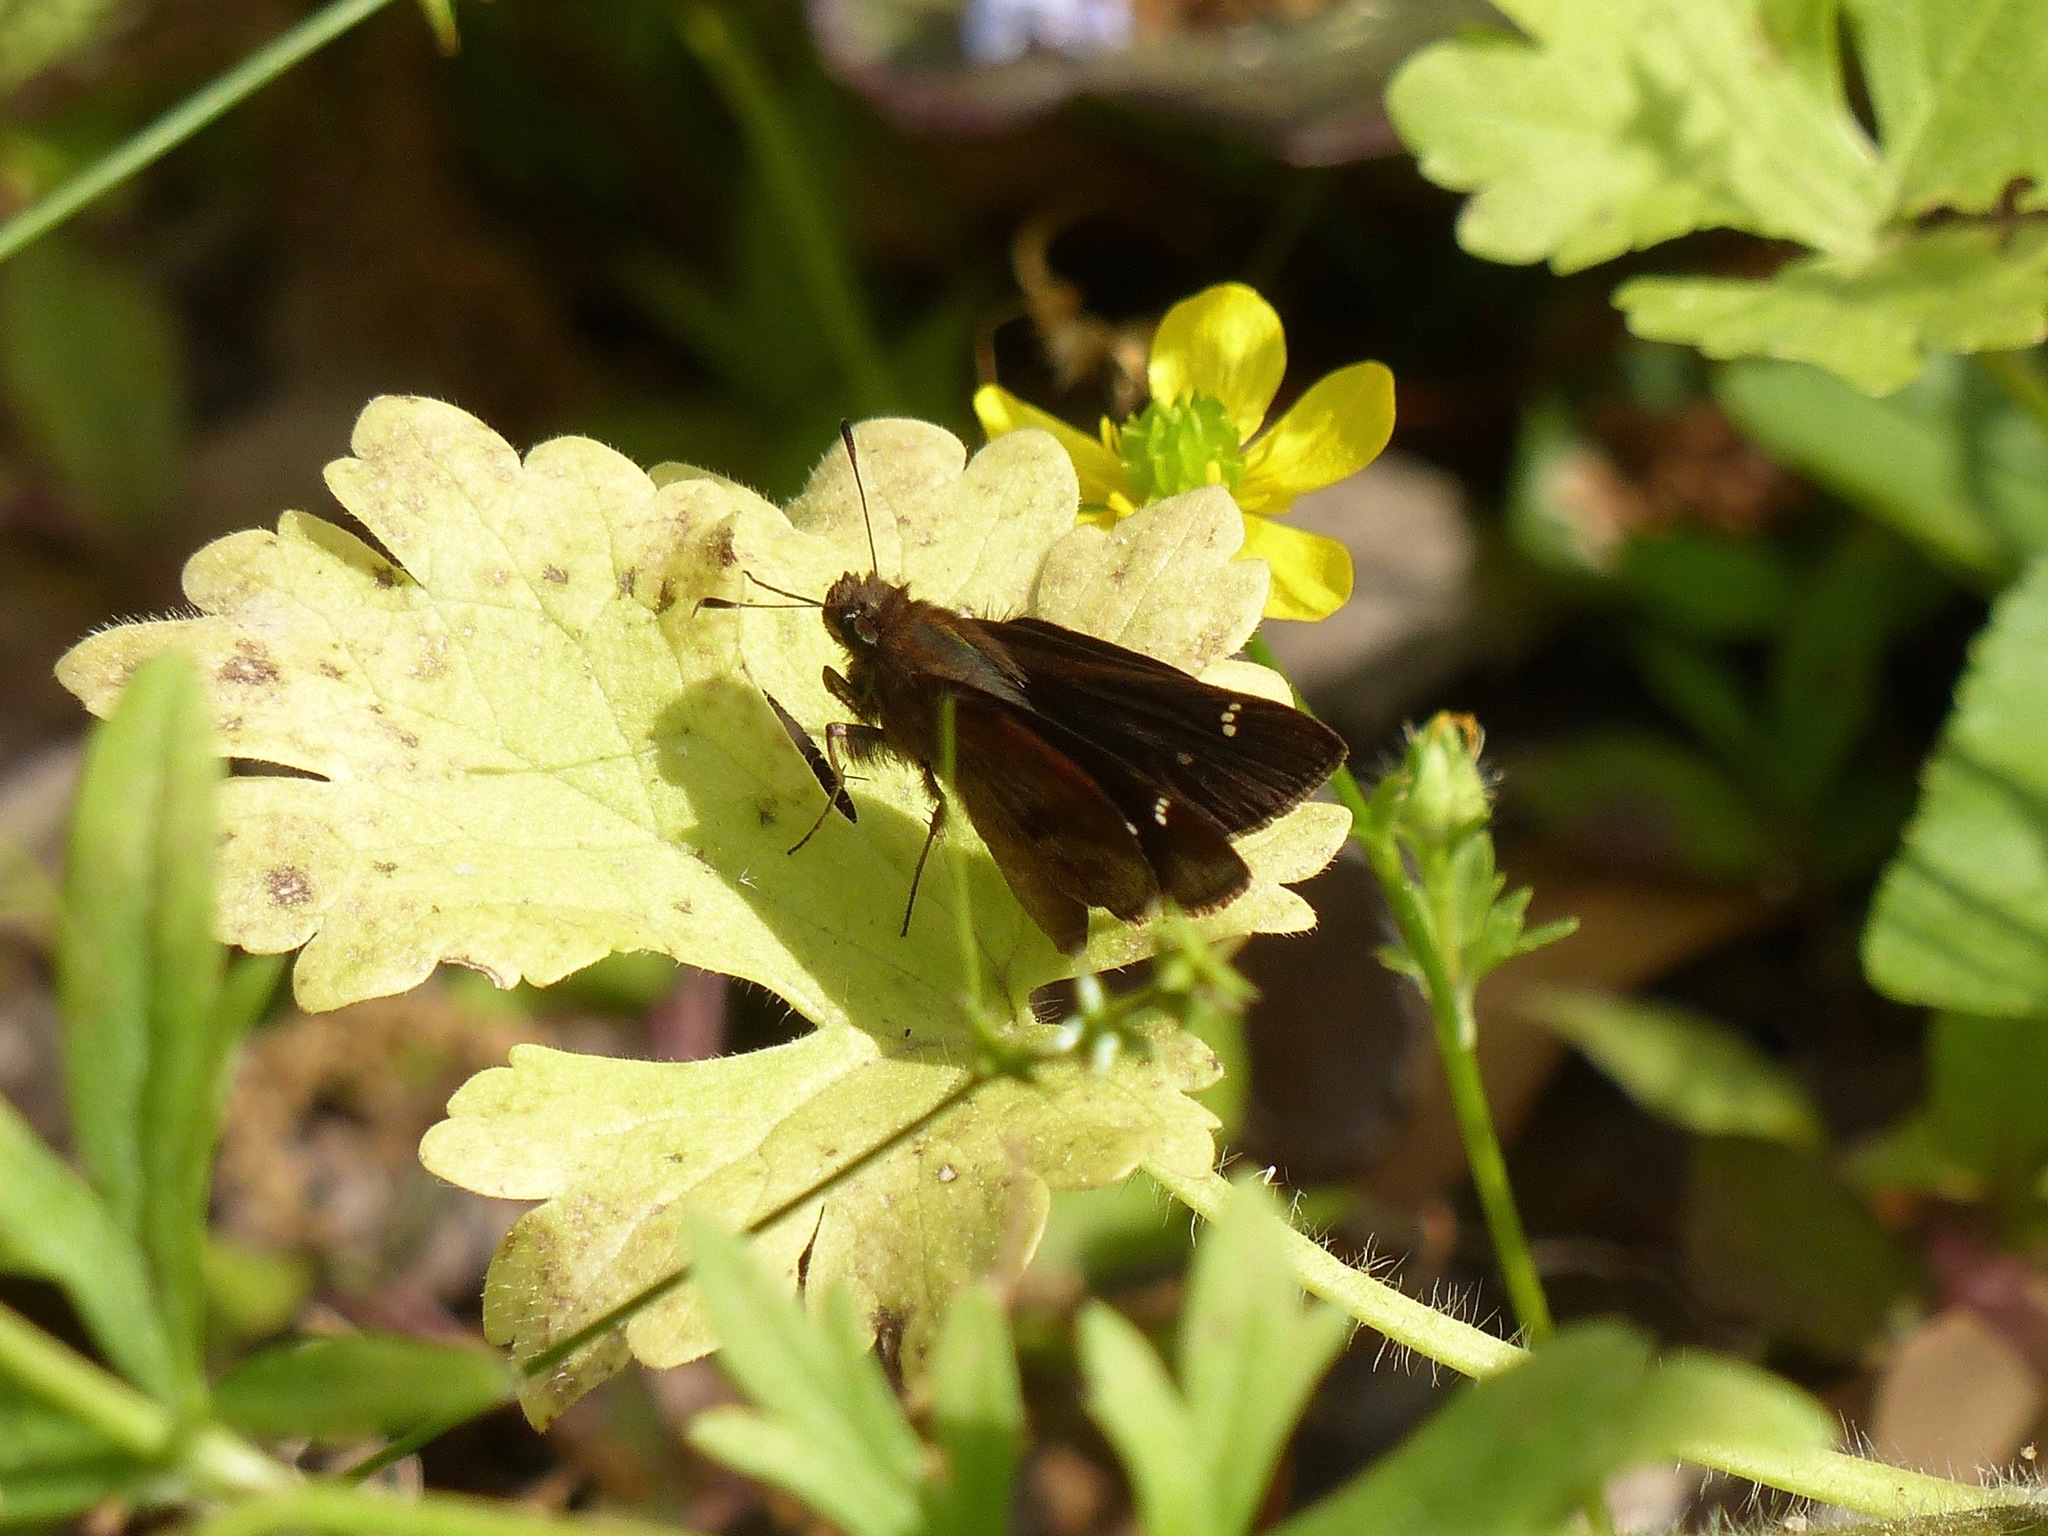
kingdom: Animalia
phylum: Arthropoda
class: Insecta
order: Lepidoptera
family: Hesperiidae
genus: Lerema
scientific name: Lerema accius
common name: Clouded skipper
